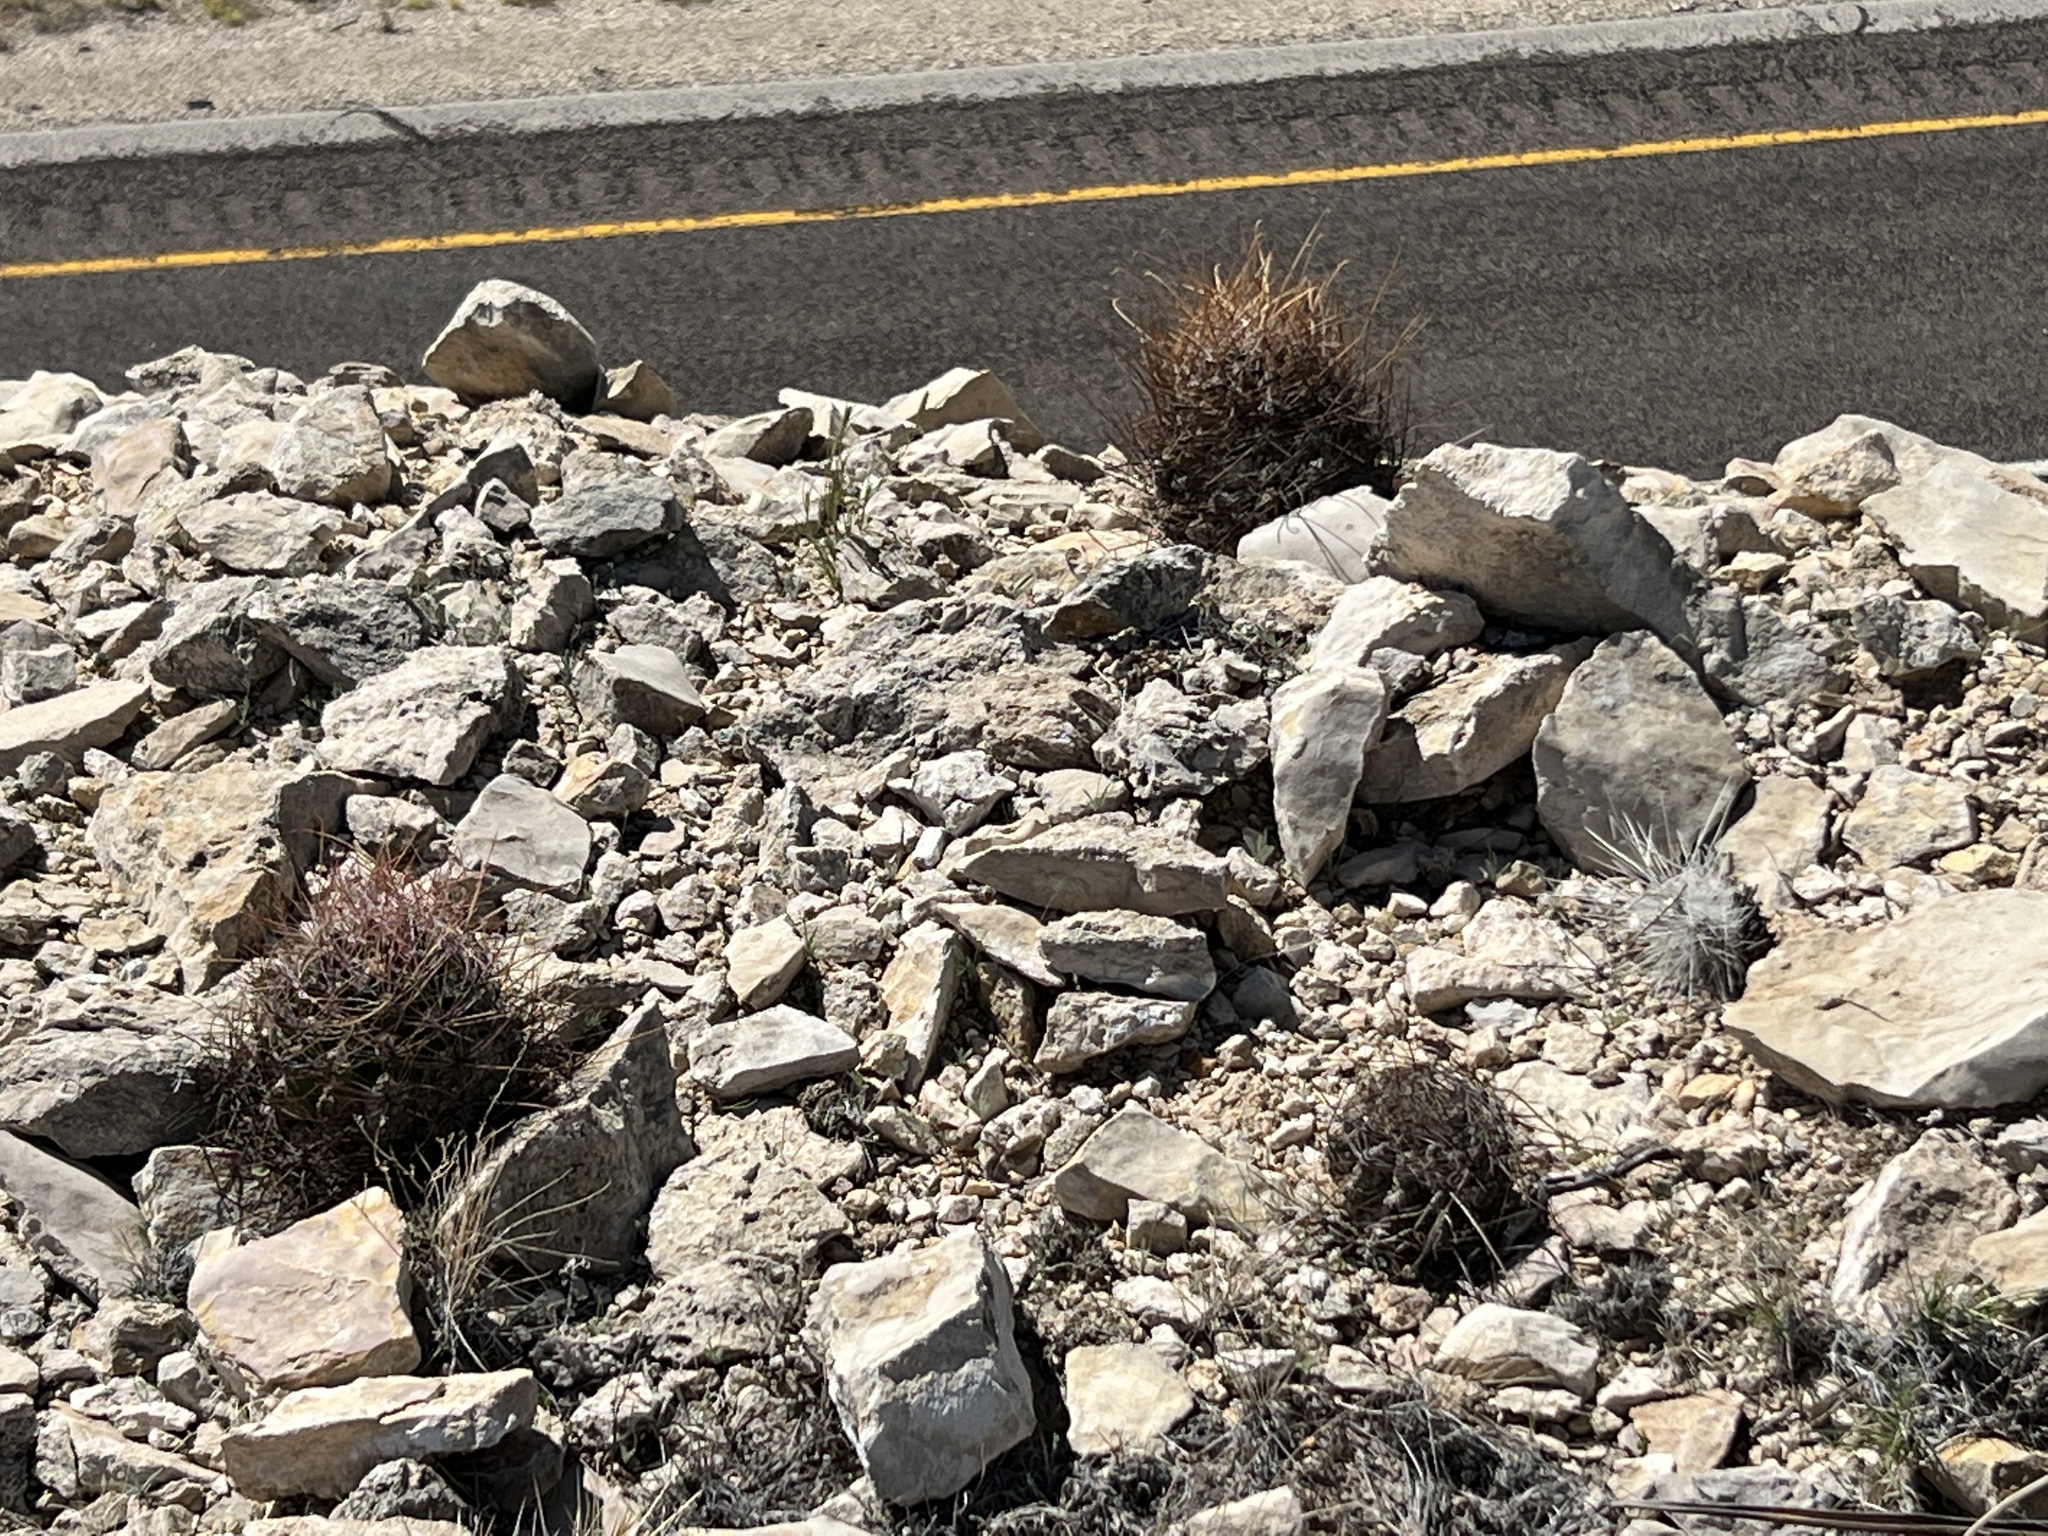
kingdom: Plantae
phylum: Tracheophyta
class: Magnoliopsida
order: Caryophyllales
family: Cactaceae
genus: Bisnaga
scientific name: Bisnaga hamatacantha
